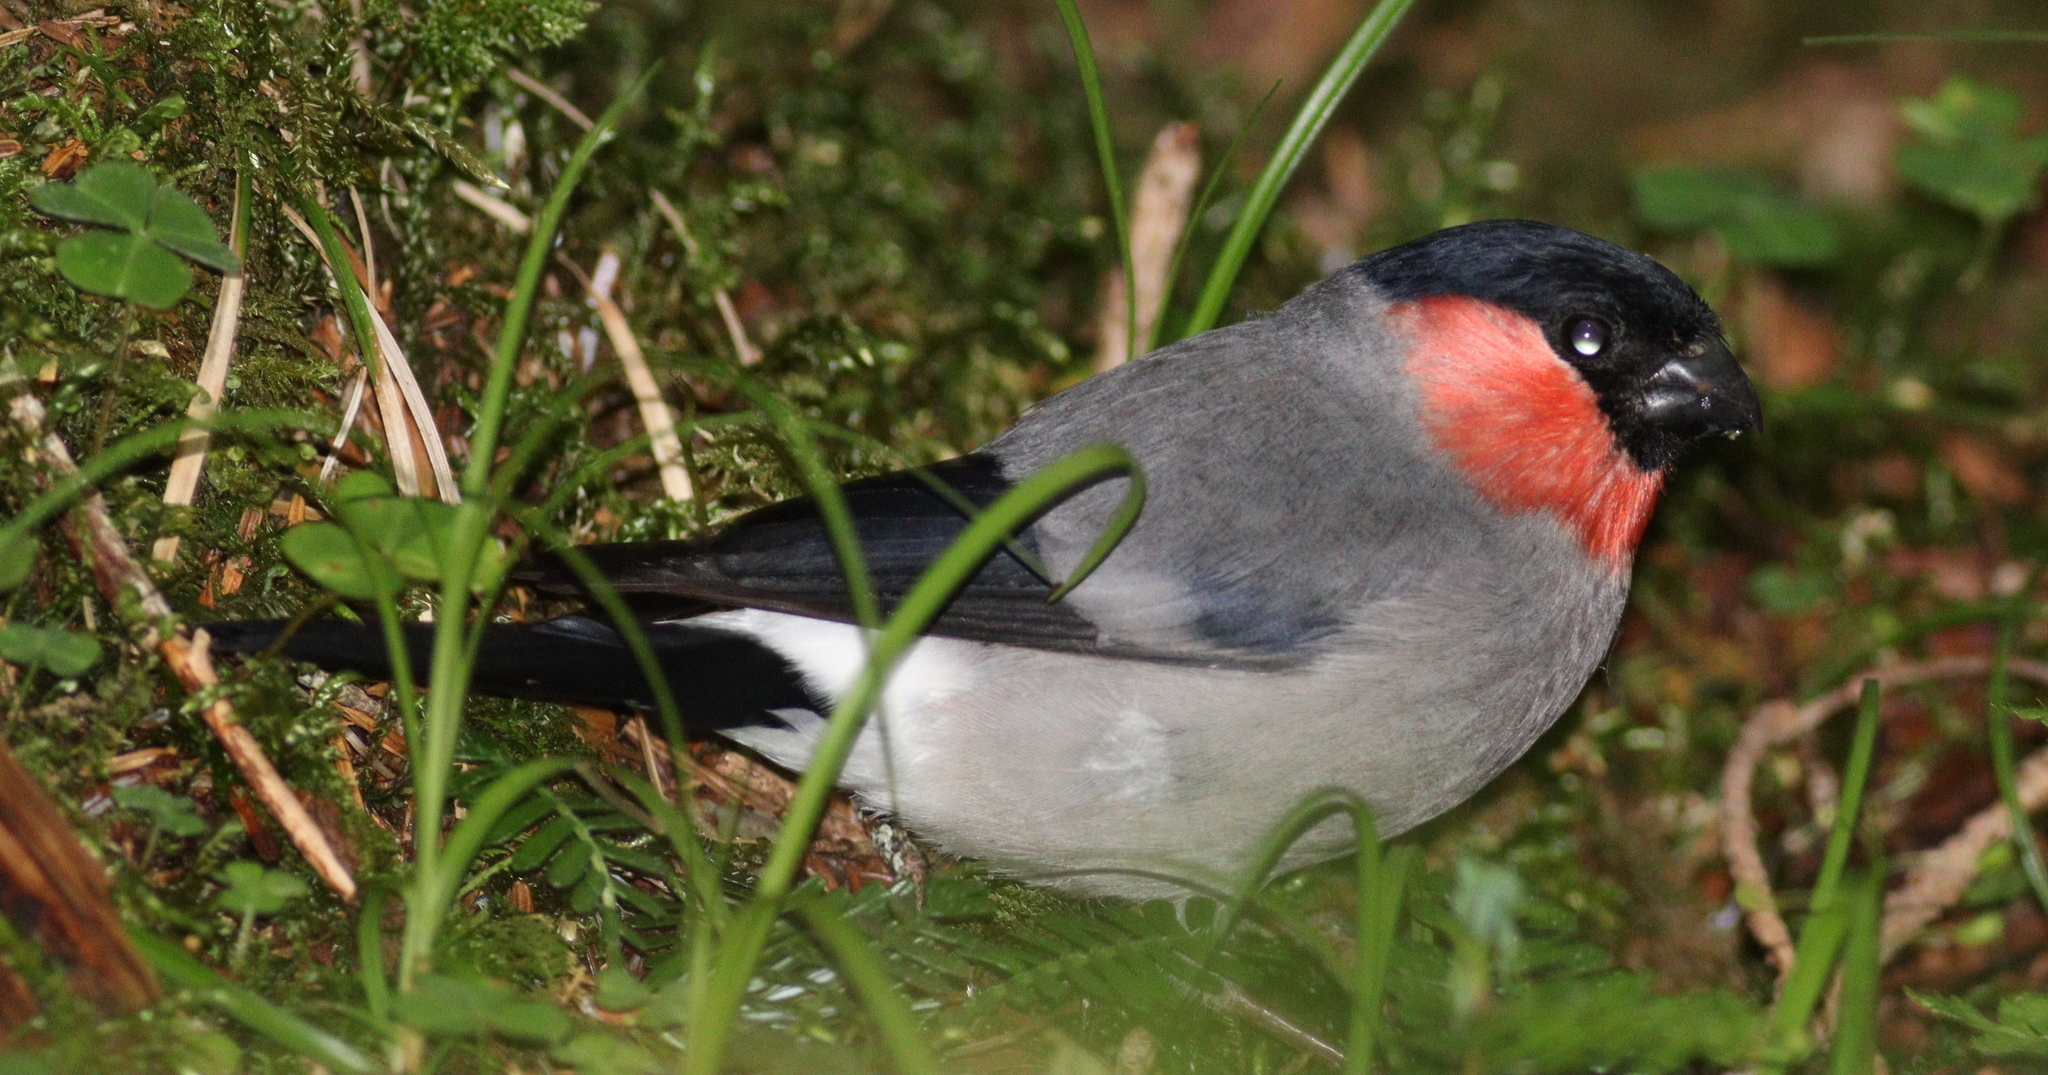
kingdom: Animalia
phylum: Chordata
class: Aves
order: Passeriformes
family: Fringillidae
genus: Pyrrhula
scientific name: Pyrrhula pyrrhula
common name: Eurasian bullfinch
